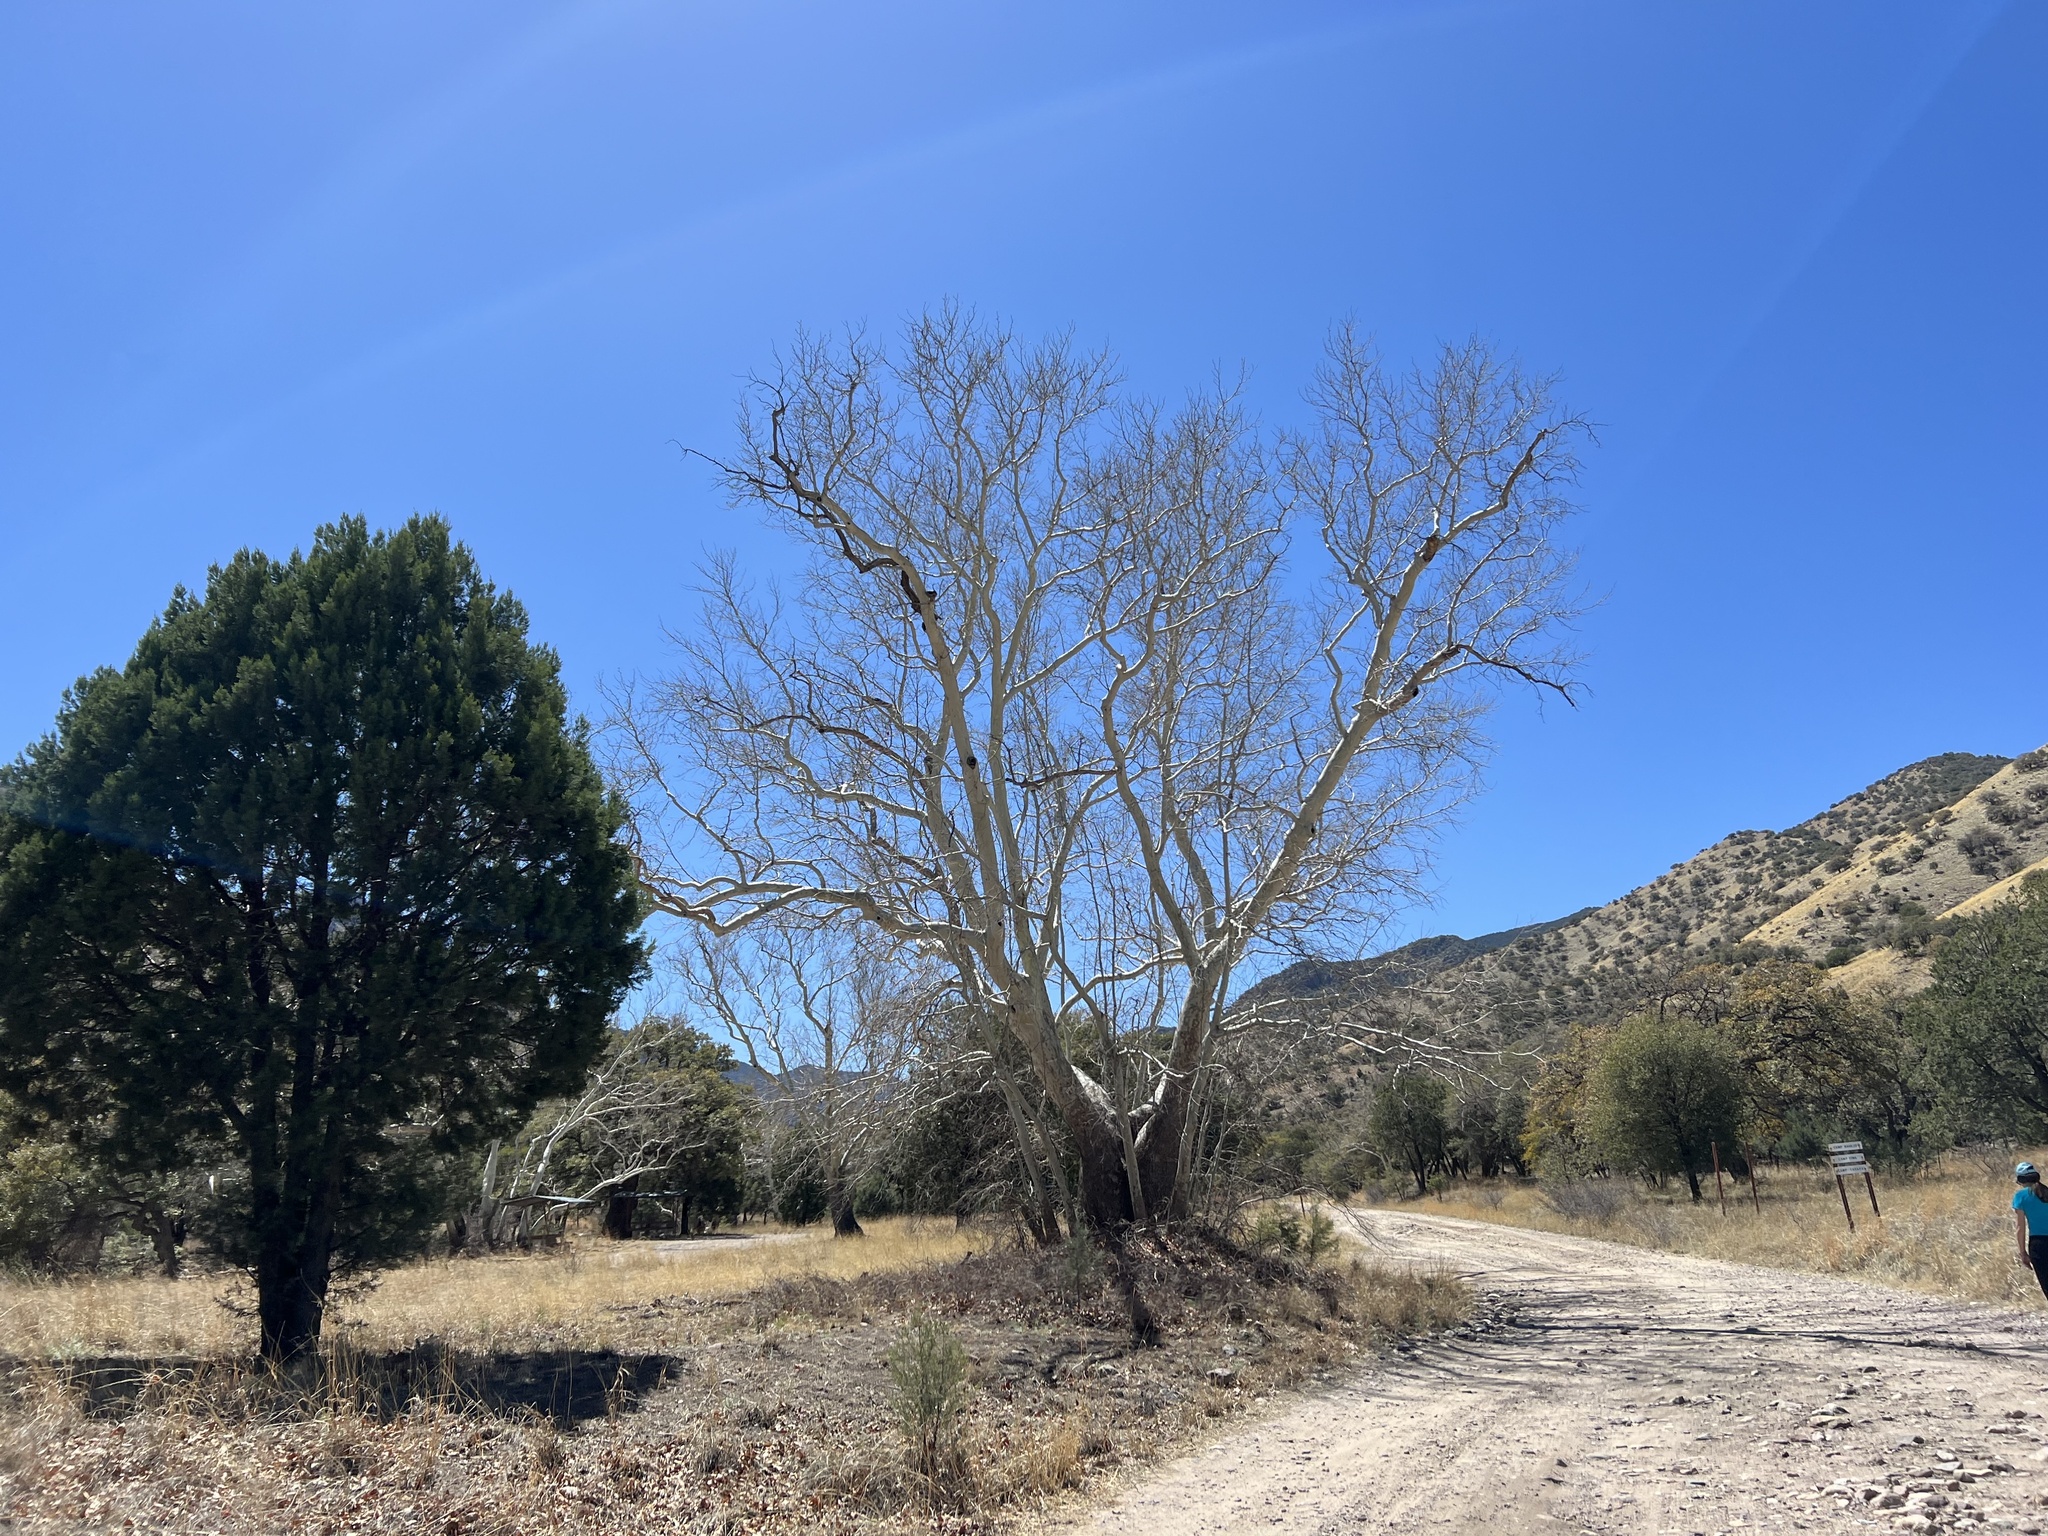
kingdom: Plantae
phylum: Tracheophyta
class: Magnoliopsida
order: Proteales
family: Platanaceae
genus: Platanus
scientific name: Platanus wrightii
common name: Arizona sycamore
